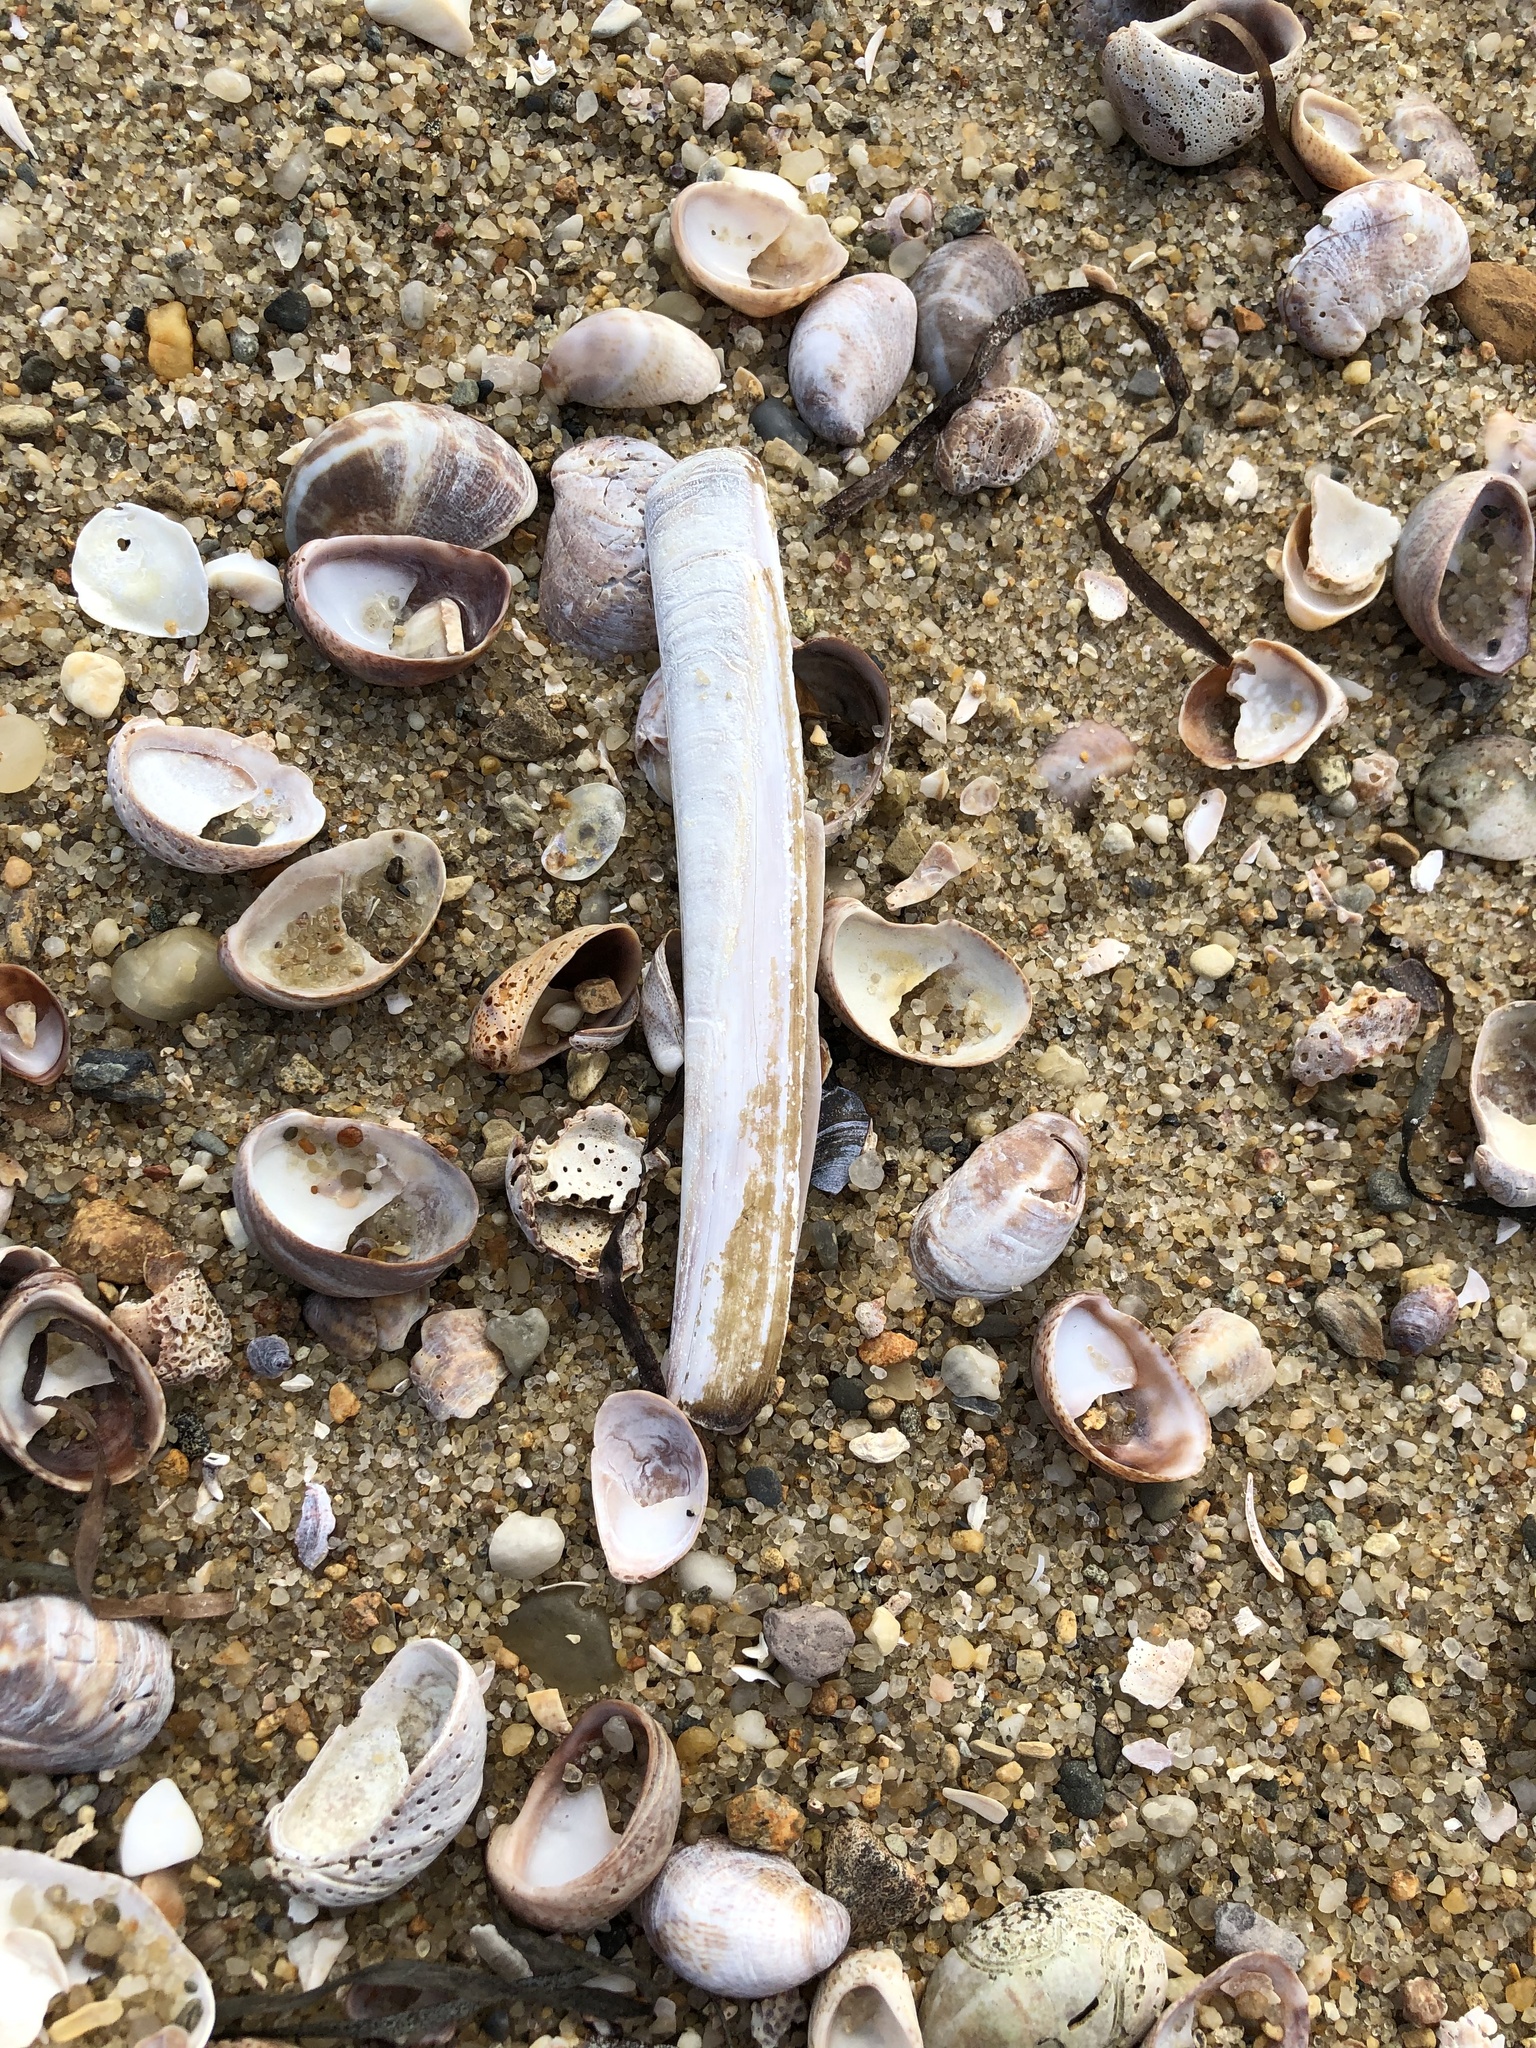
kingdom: Animalia
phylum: Mollusca
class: Bivalvia
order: Adapedonta
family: Pharidae
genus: Ensis
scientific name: Ensis leei
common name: American jack knife clam
